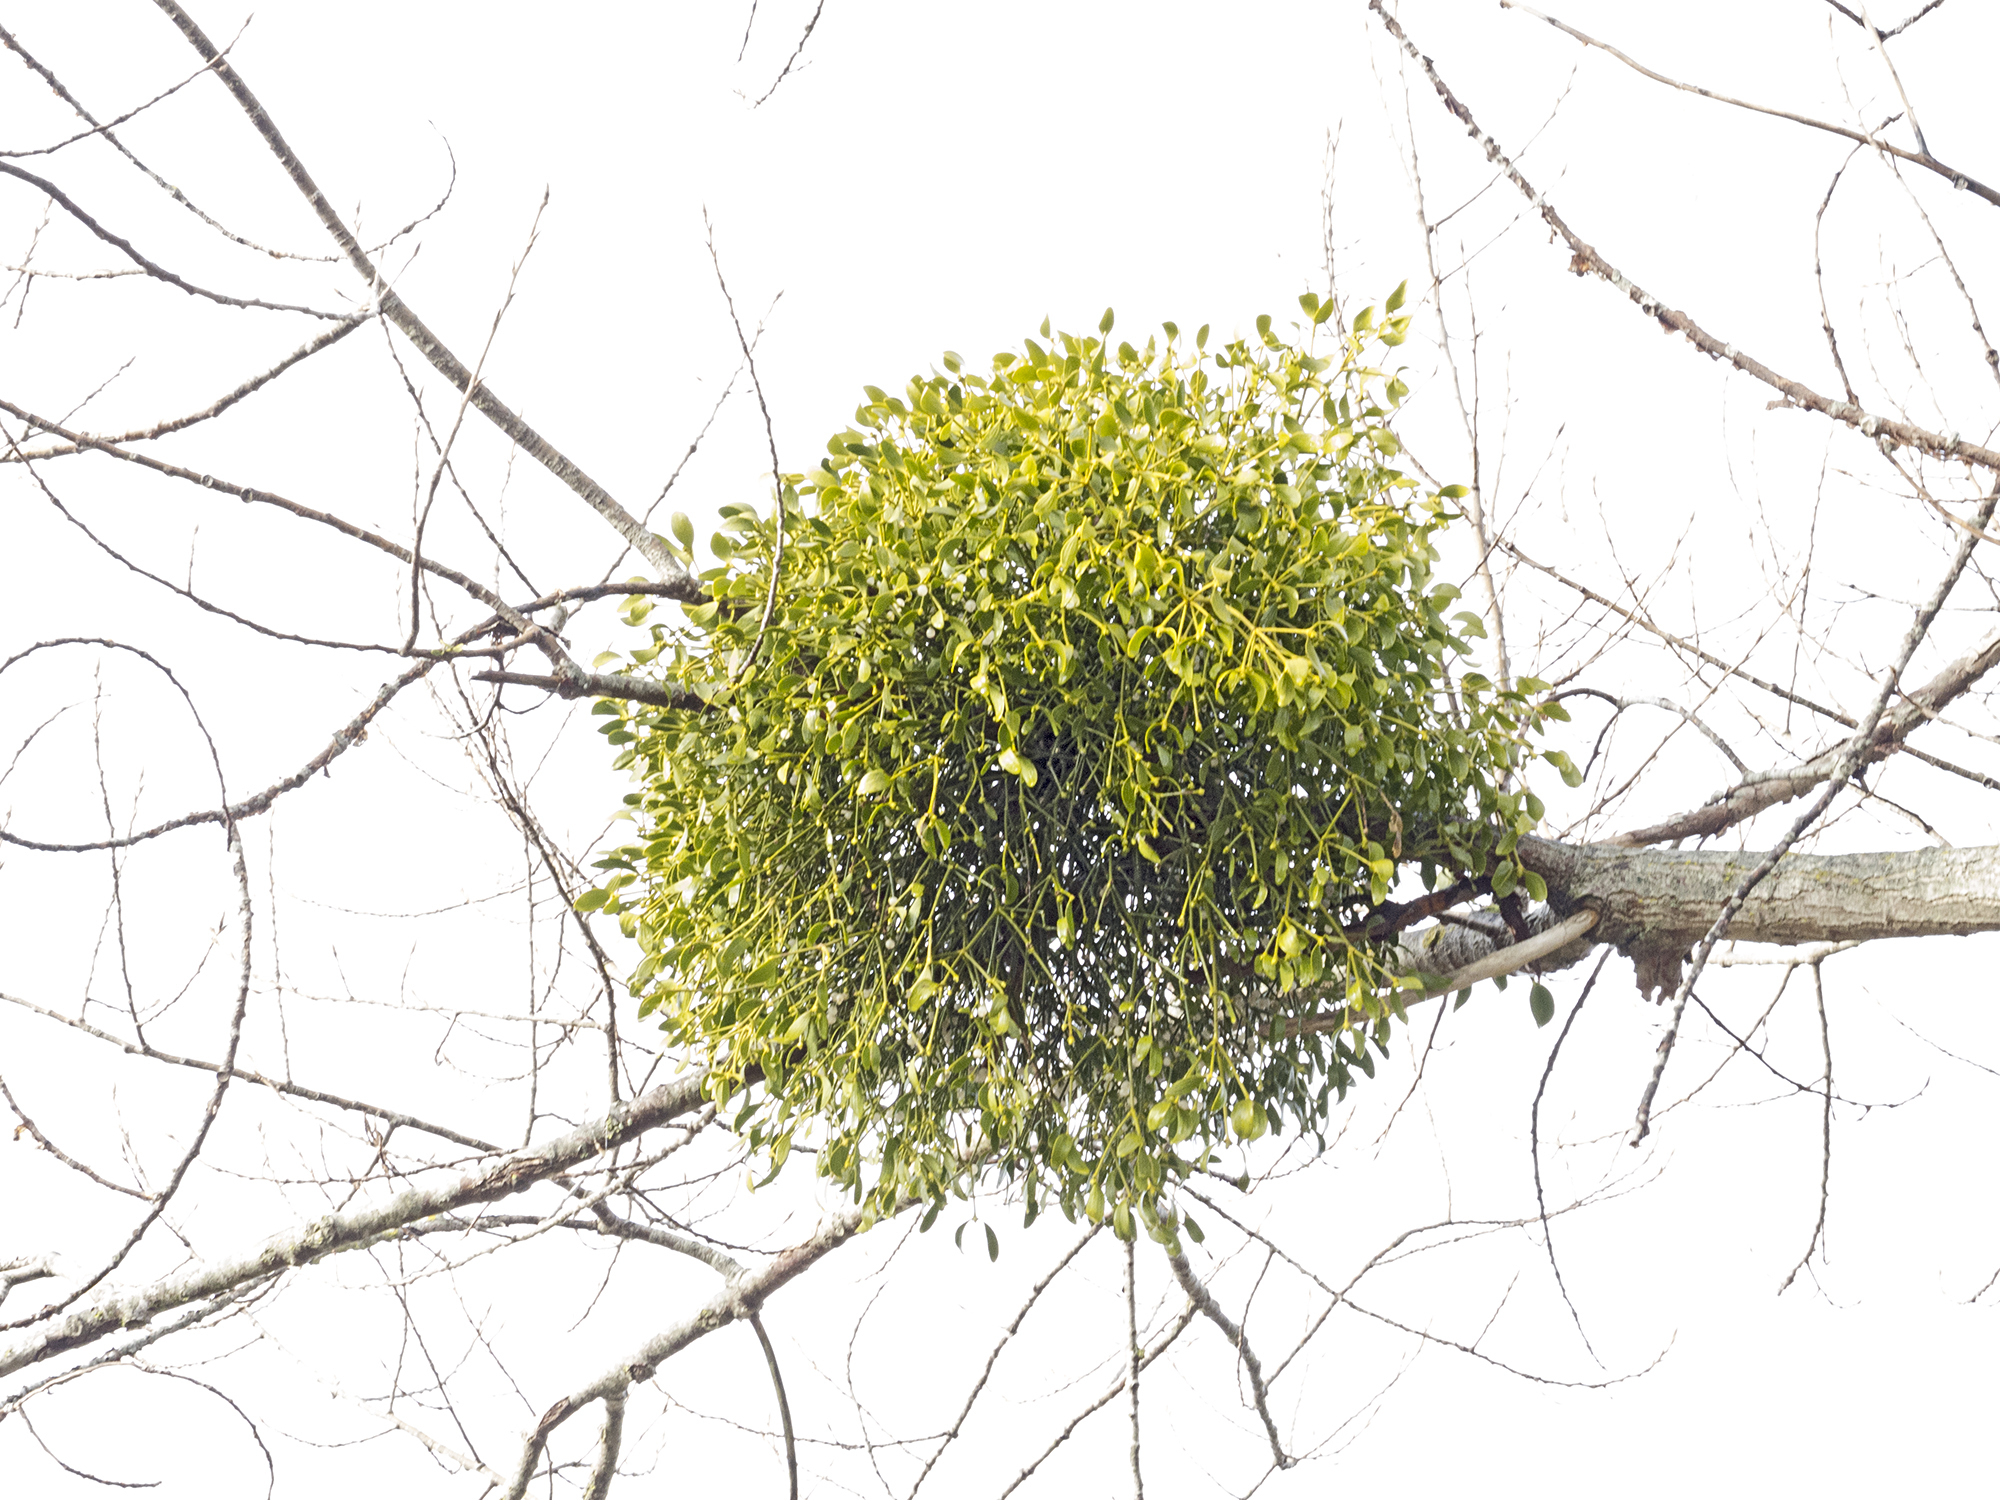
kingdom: Plantae
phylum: Tracheophyta
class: Magnoliopsida
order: Santalales
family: Viscaceae
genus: Viscum
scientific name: Viscum album
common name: Mistletoe
